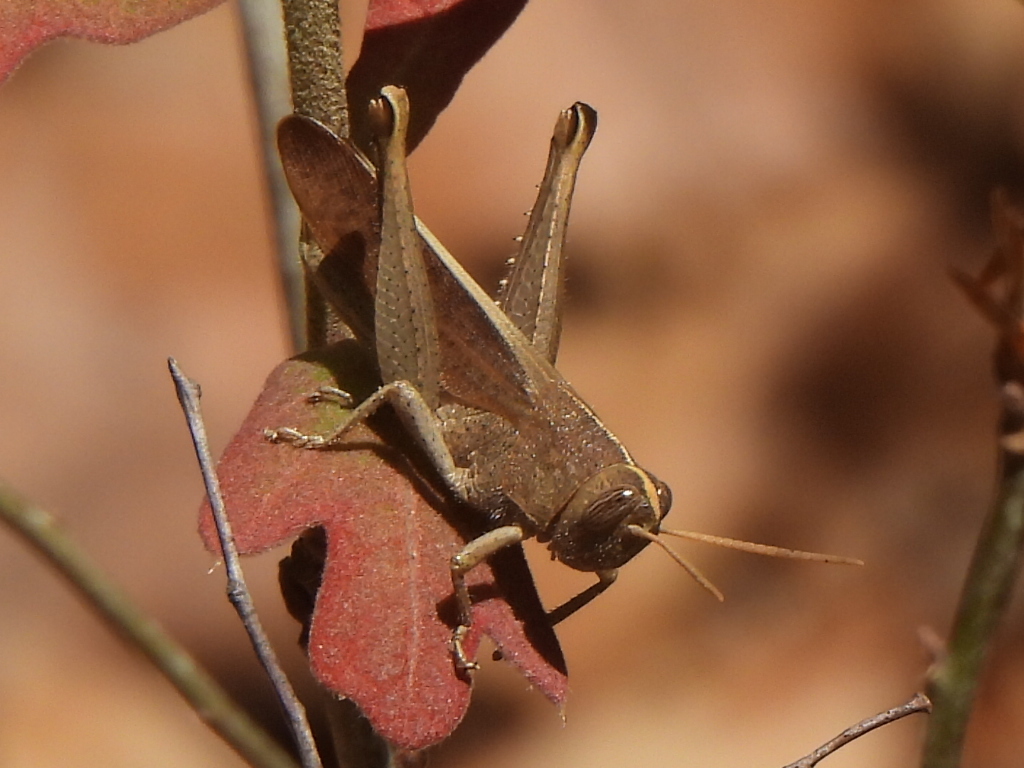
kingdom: Animalia
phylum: Arthropoda
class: Insecta
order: Orthoptera
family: Acrididae
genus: Schistocerca
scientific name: Schistocerca damnifica
